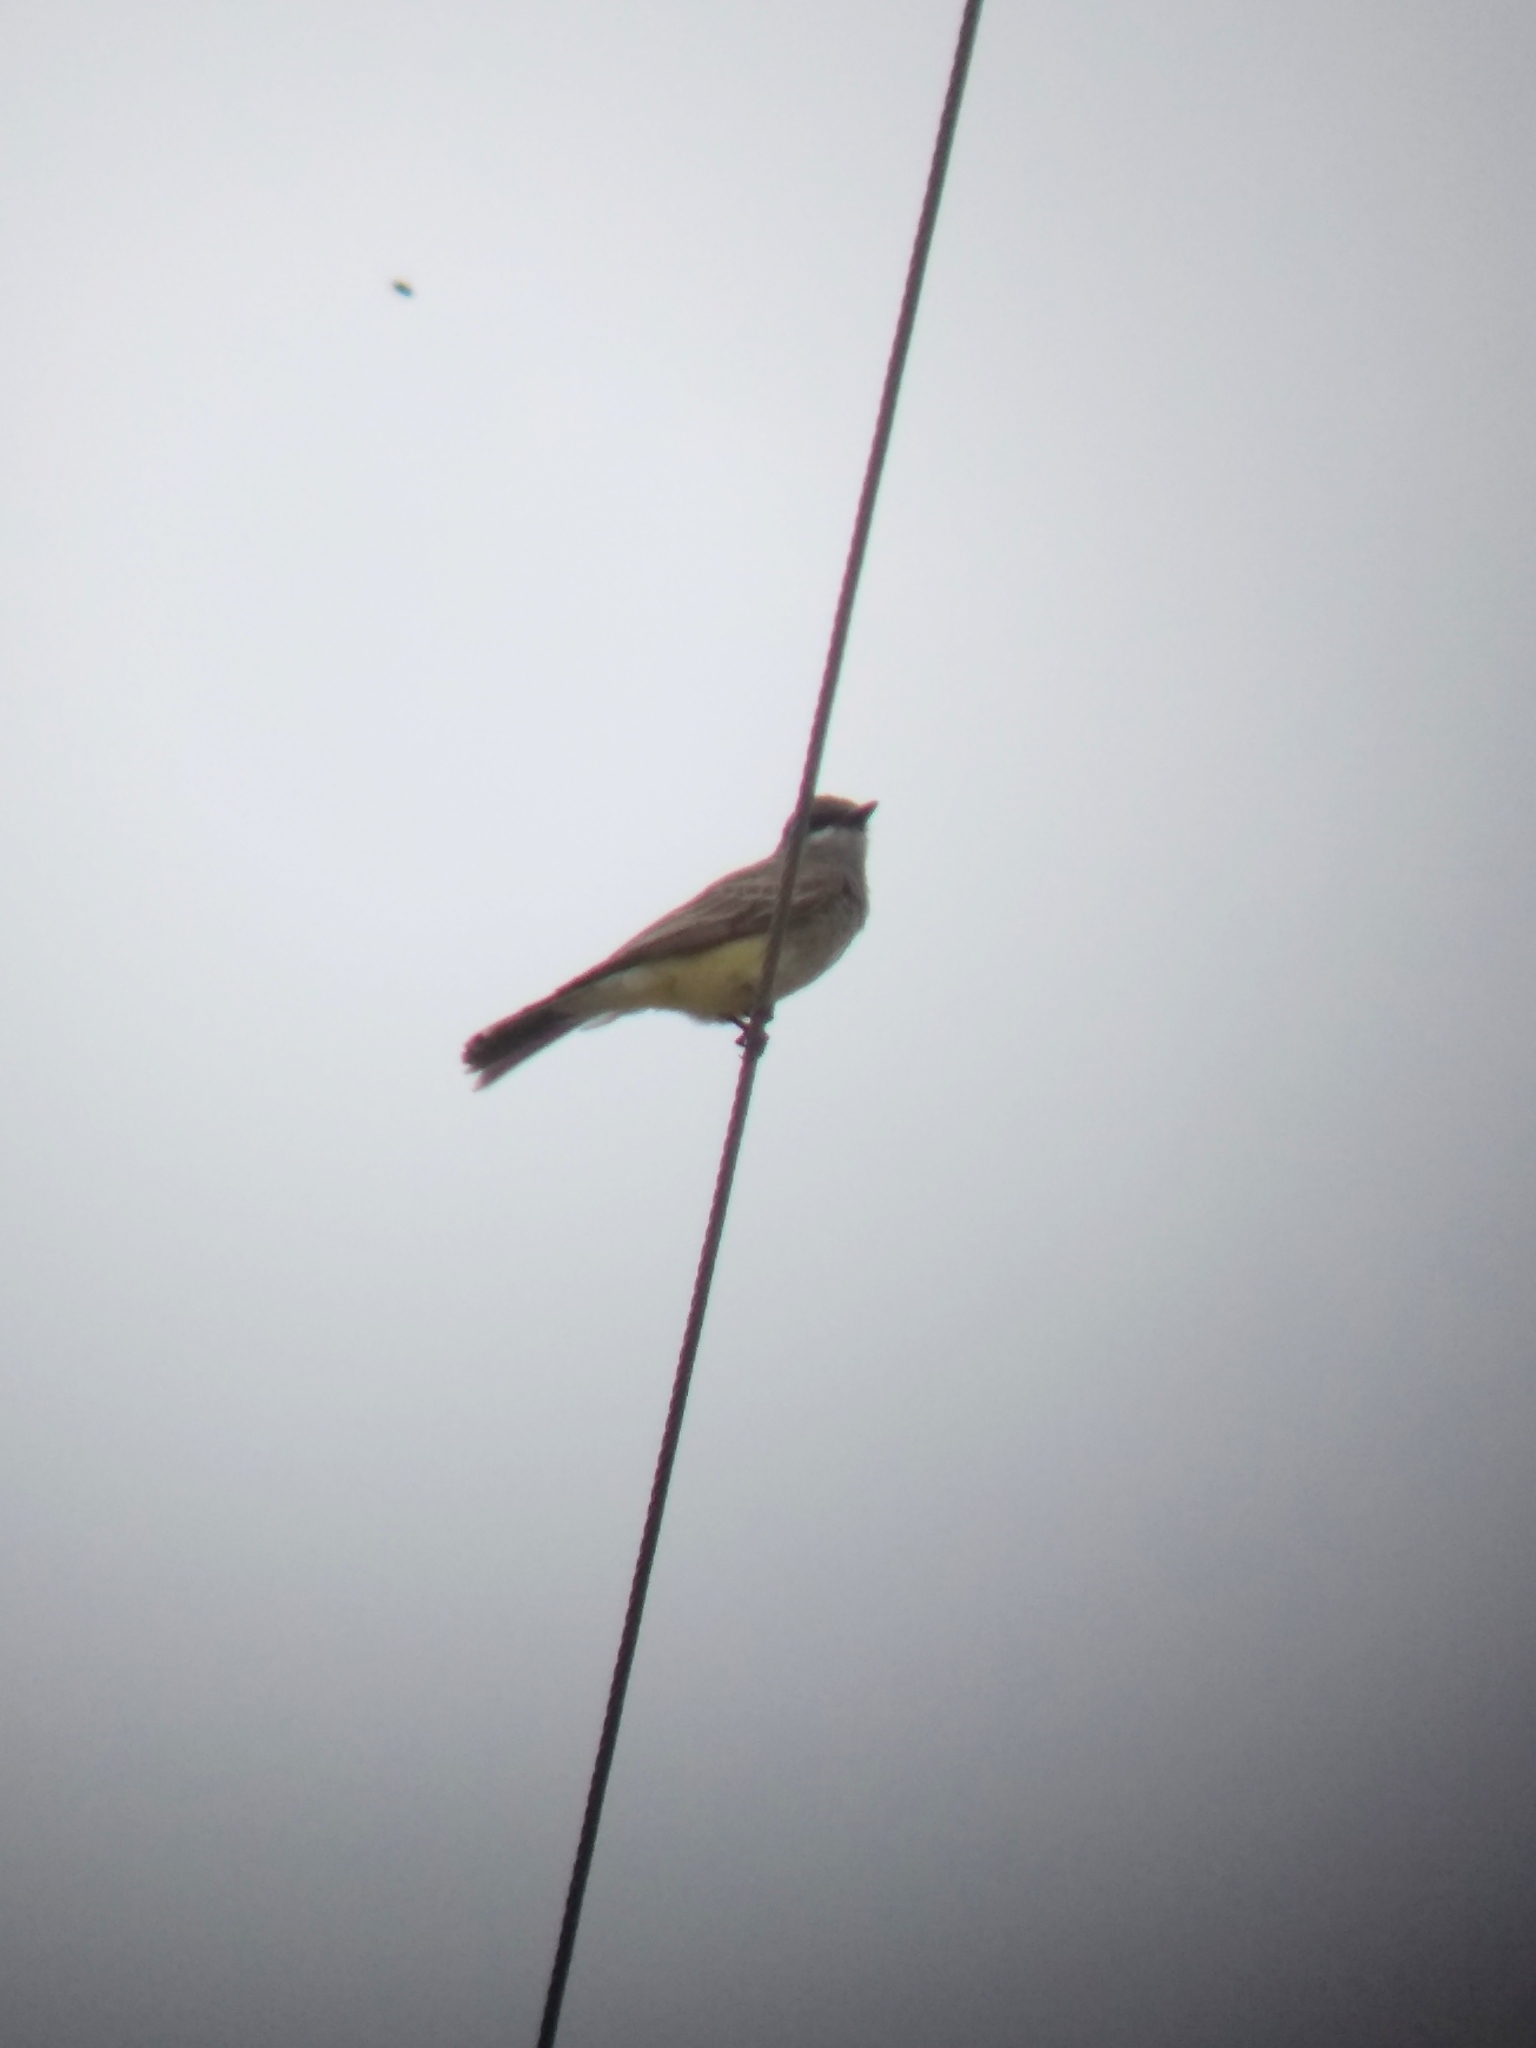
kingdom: Animalia
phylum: Chordata
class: Aves
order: Passeriformes
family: Tyrannidae
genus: Tyrannus
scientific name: Tyrannus vociferans
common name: Cassin's kingbird
